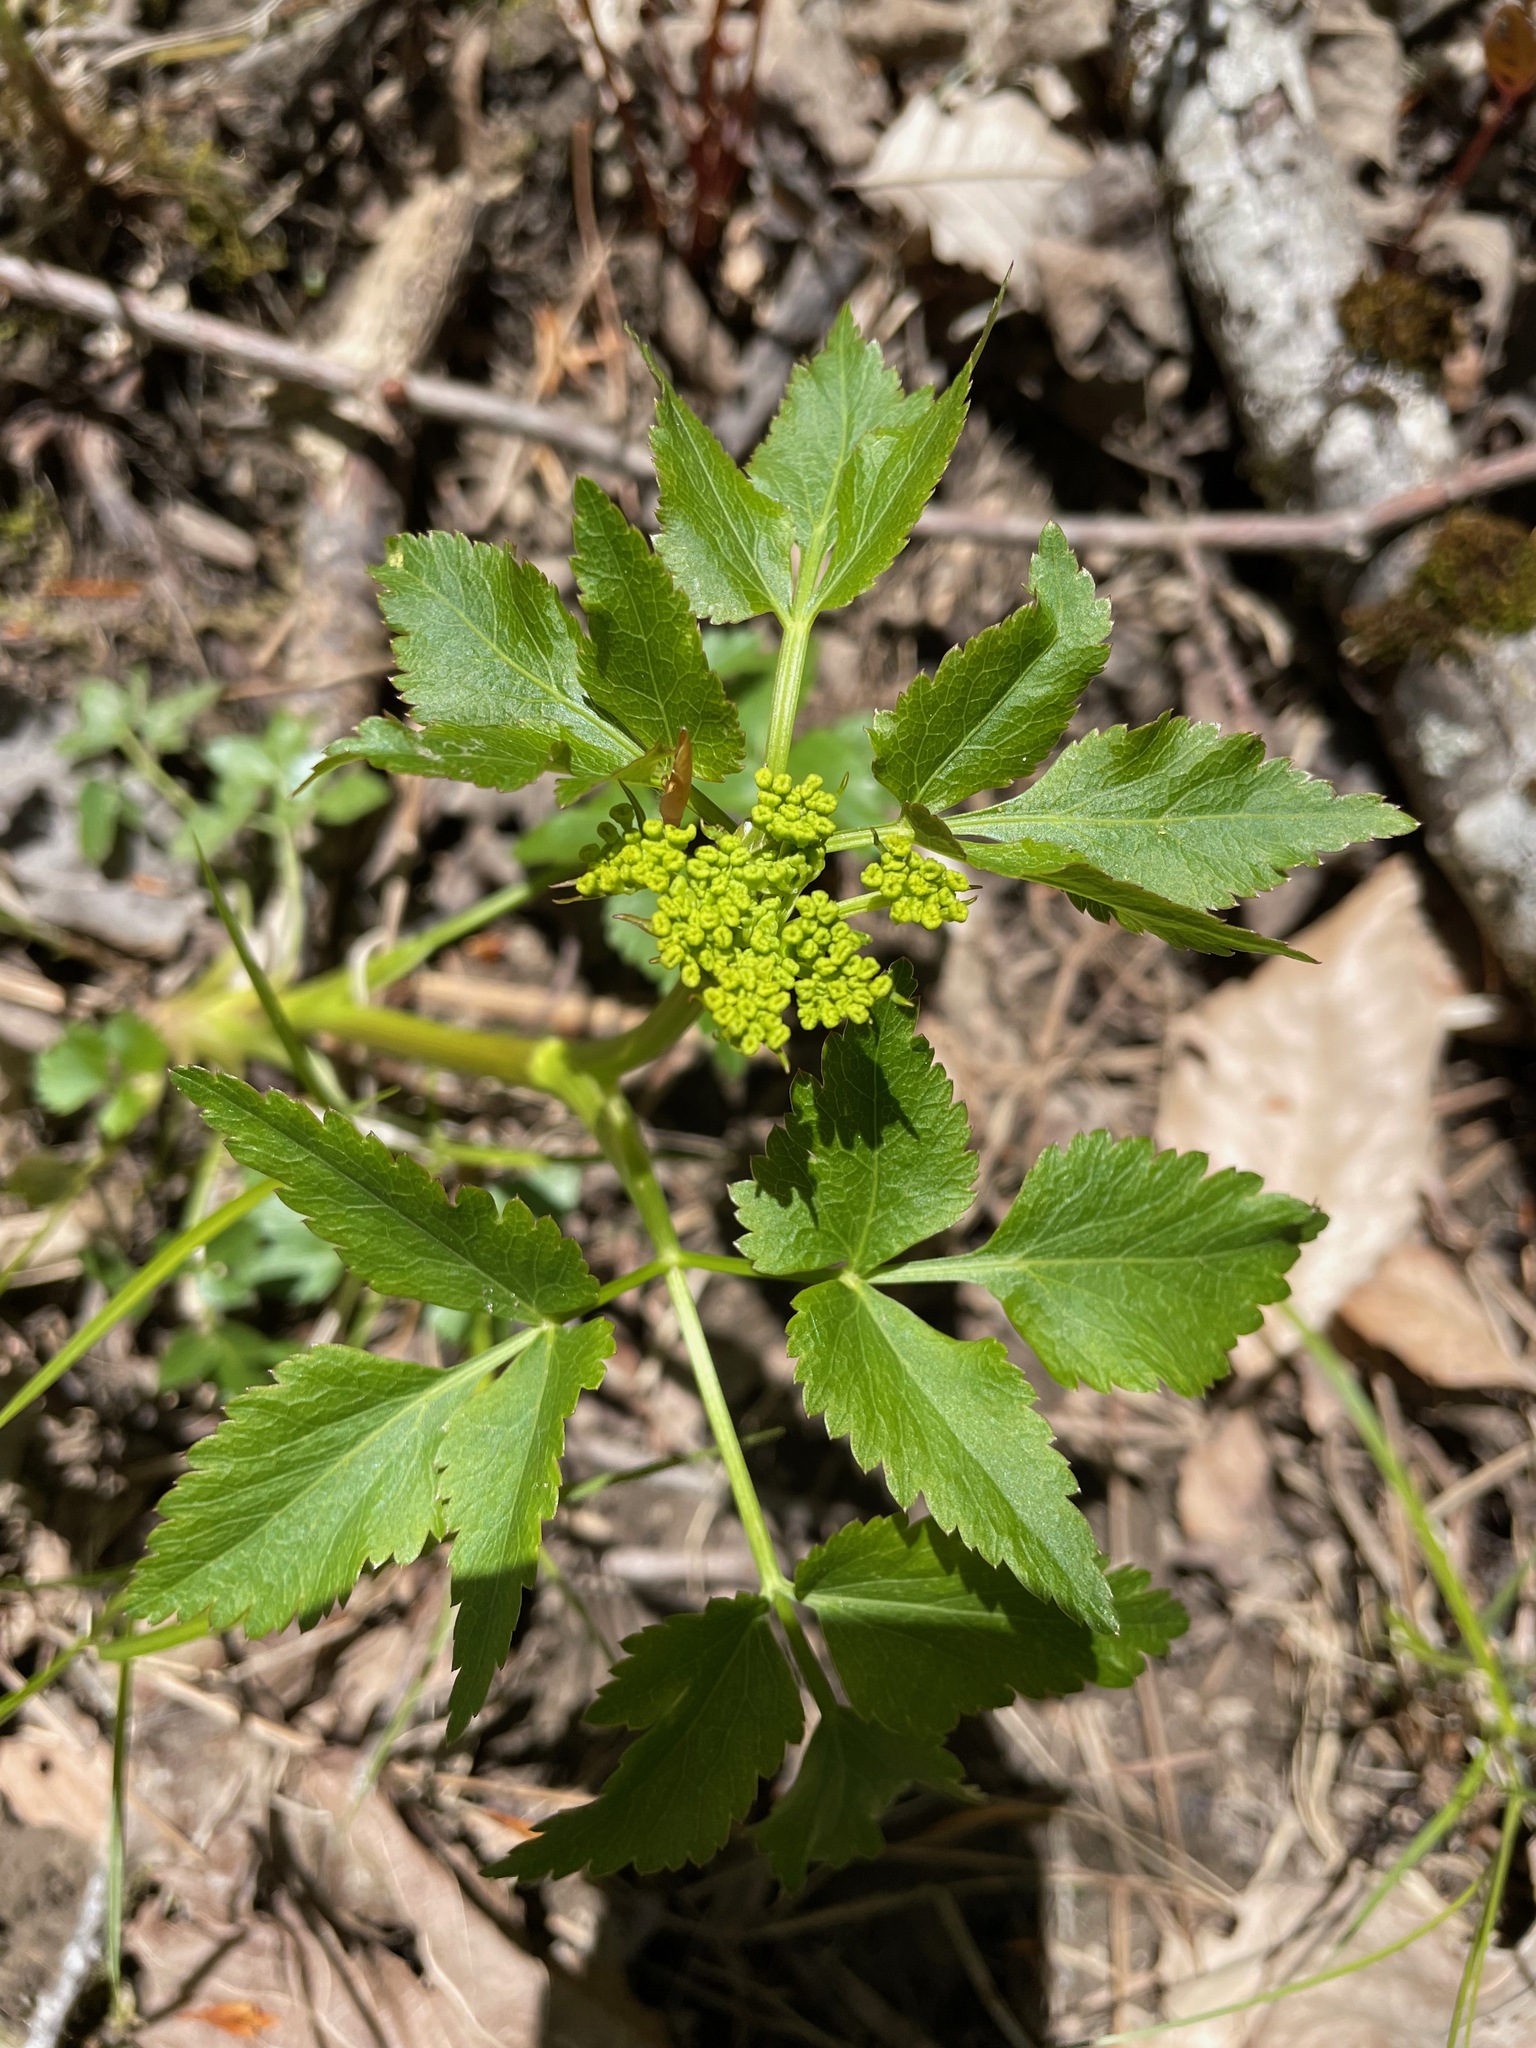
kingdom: Plantae
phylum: Tracheophyta
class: Magnoliopsida
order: Apiales
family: Apiaceae
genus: Zizia
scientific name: Zizia aurea
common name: Golden alexanders
